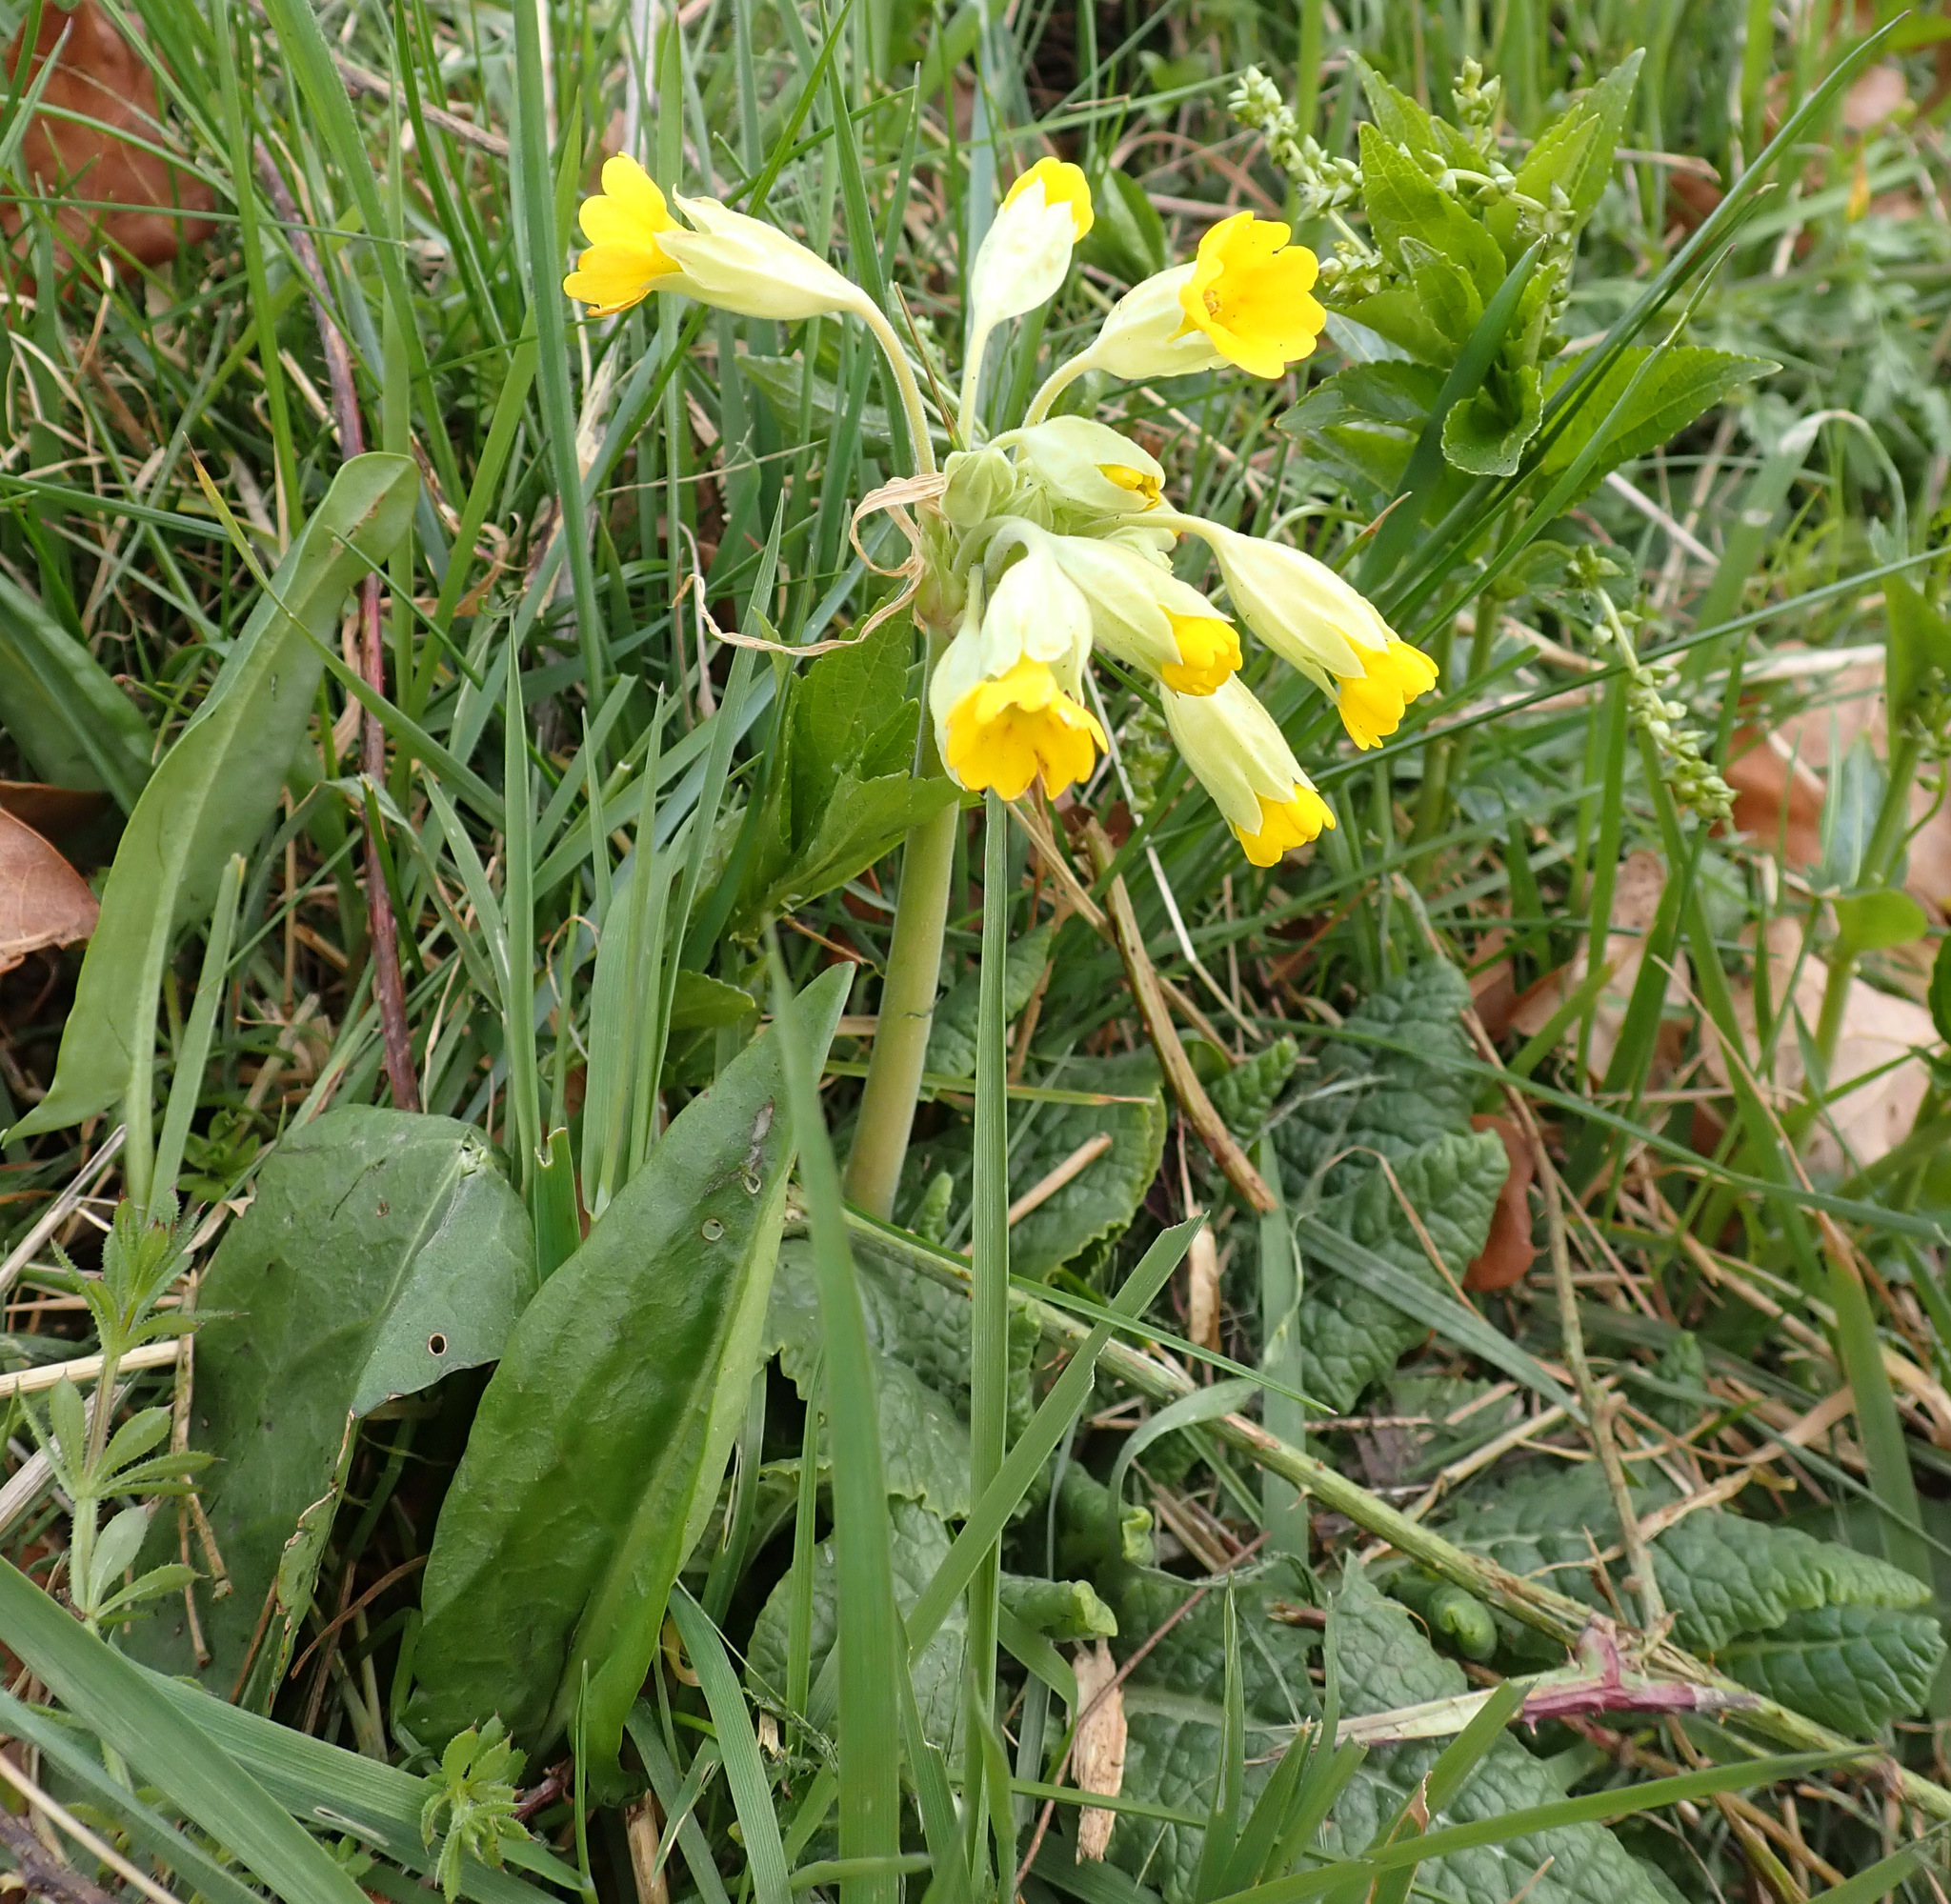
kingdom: Plantae
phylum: Tracheophyta
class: Magnoliopsida
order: Ericales
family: Primulaceae
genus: Primula
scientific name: Primula veris
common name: Cowslip
